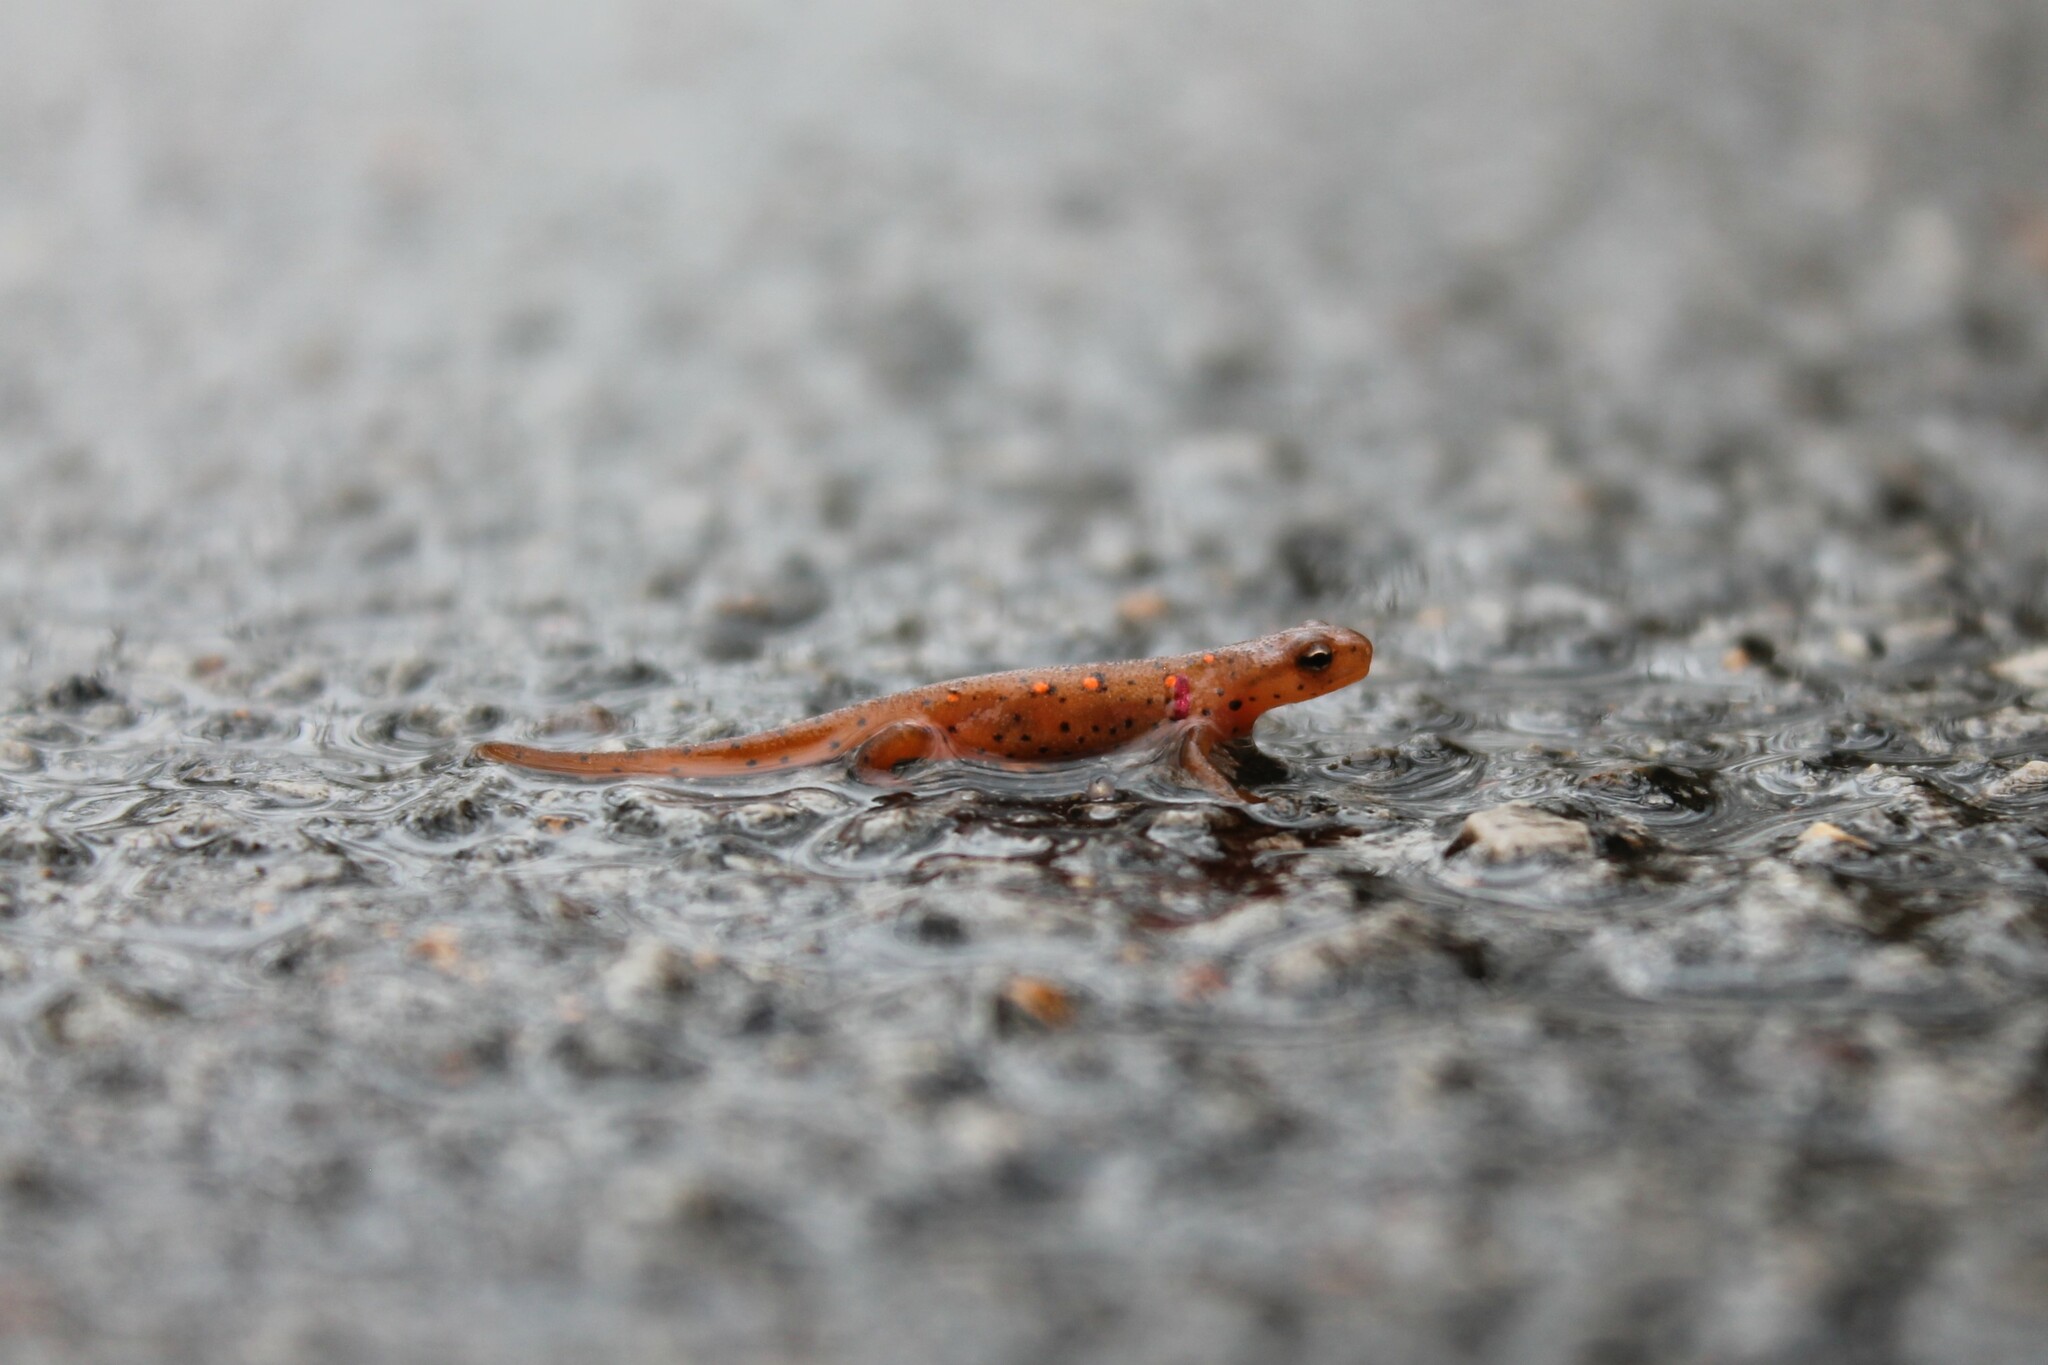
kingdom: Animalia
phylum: Chordata
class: Amphibia
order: Caudata
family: Salamandridae
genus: Notophthalmus
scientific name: Notophthalmus viridescens
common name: Eastern newt
